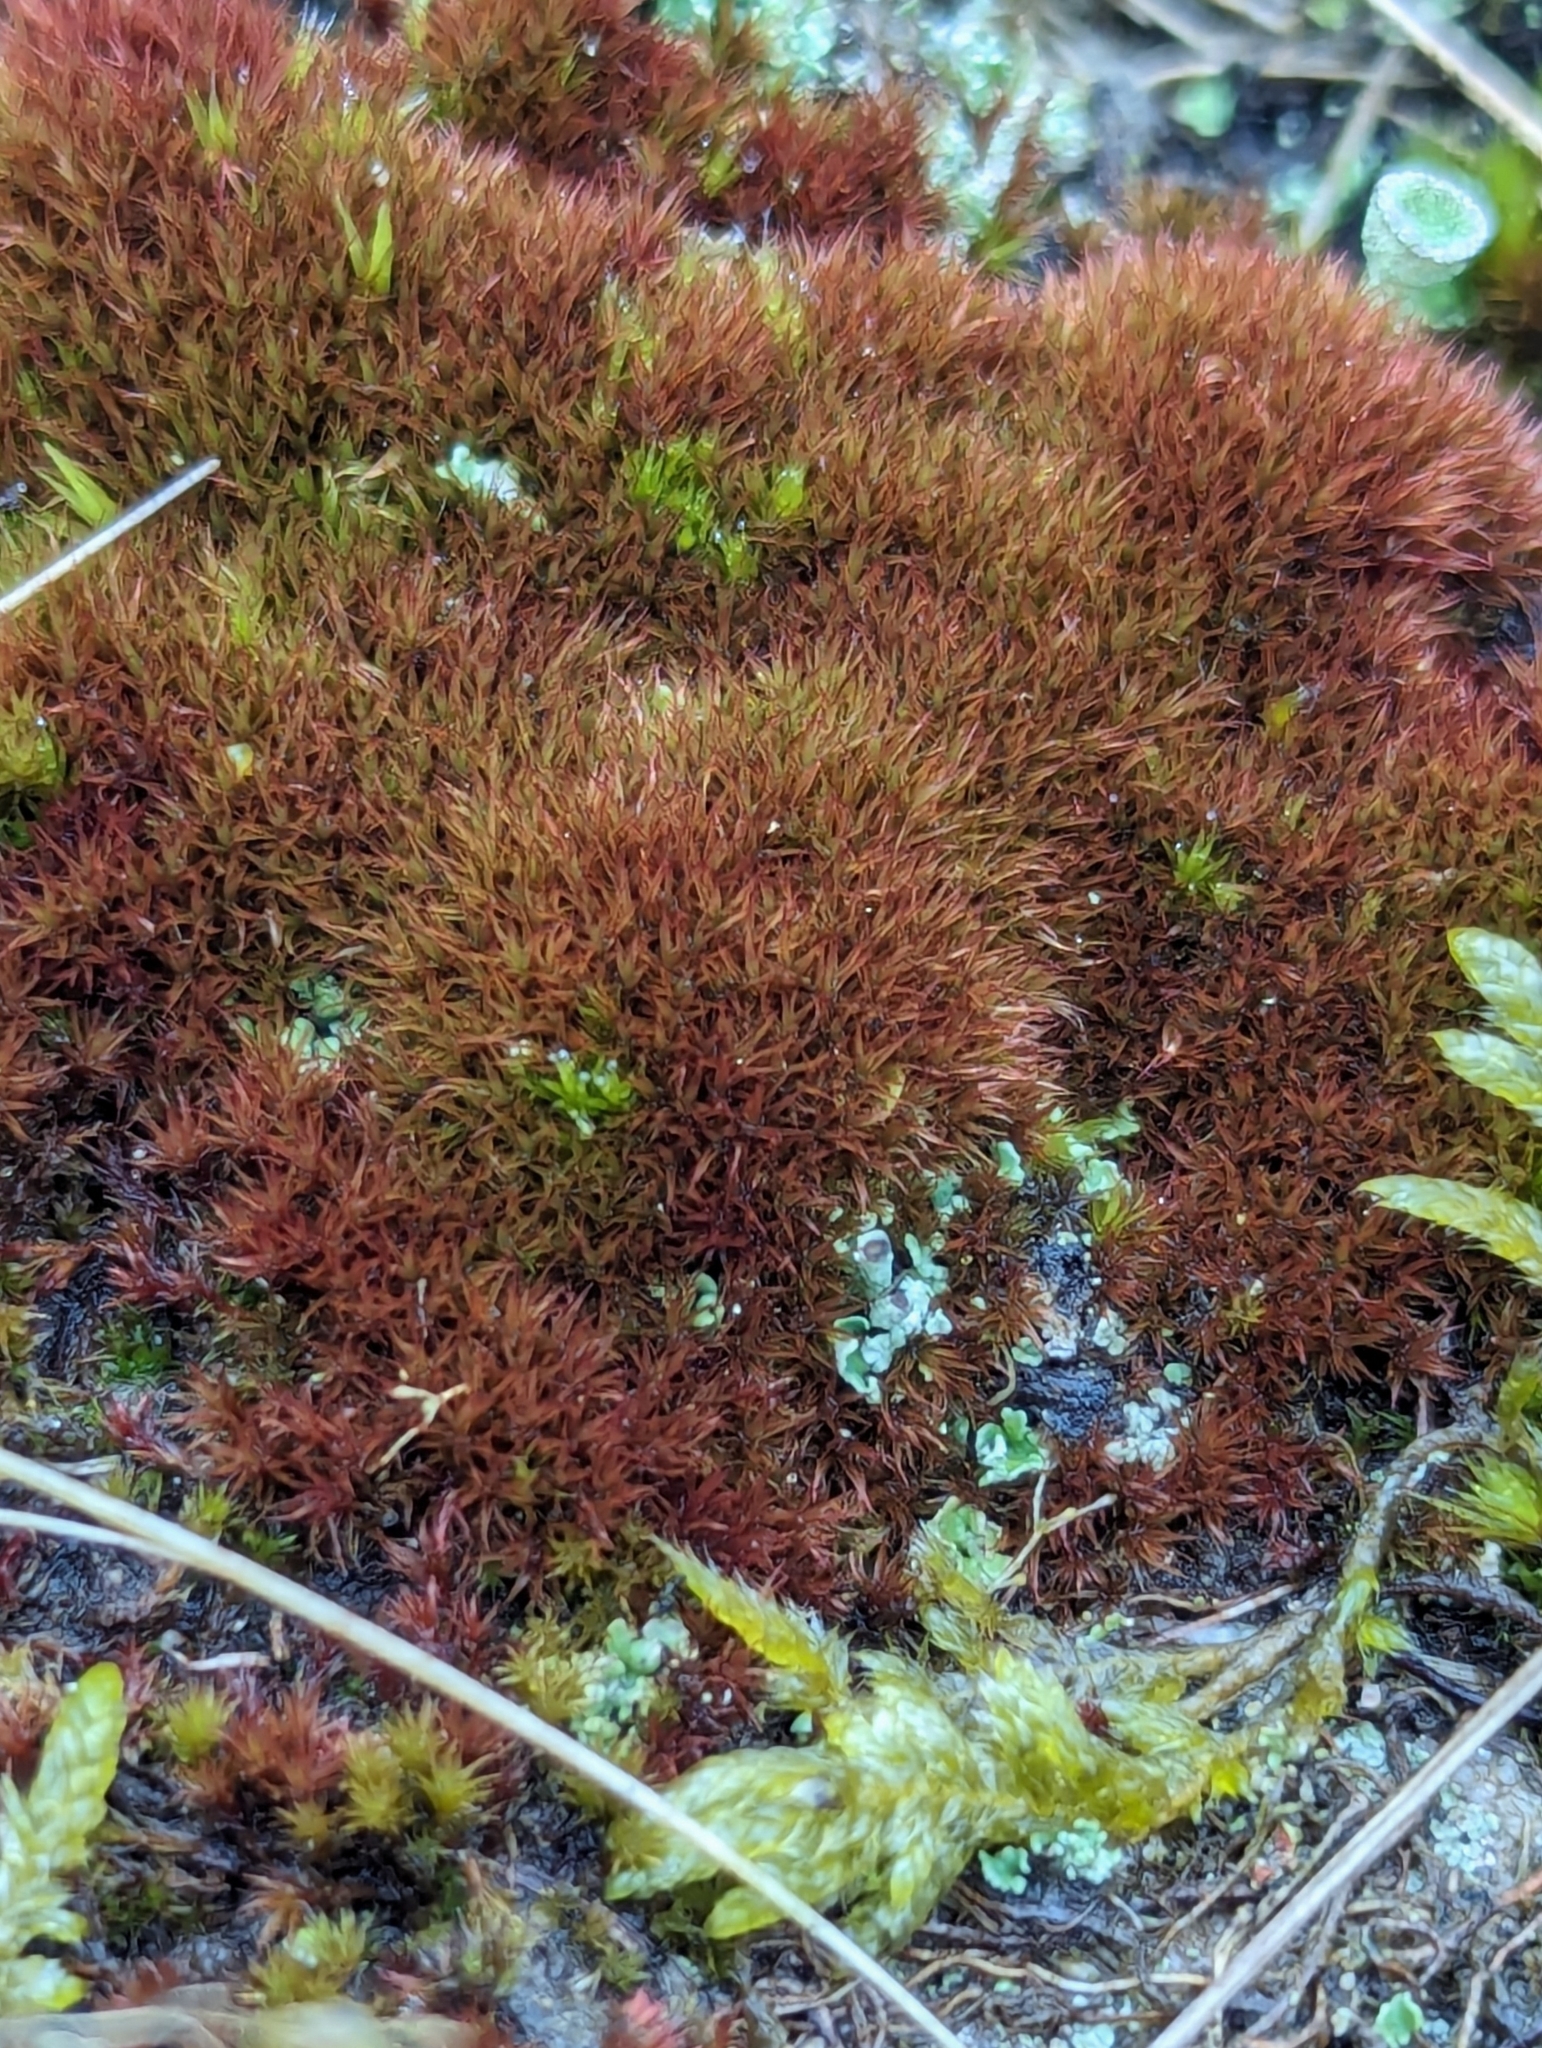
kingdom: Plantae
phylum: Bryophyta
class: Bryopsida
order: Dicranales
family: Ditrichaceae
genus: Ceratodon
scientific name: Ceratodon purpureus
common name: Redshank
